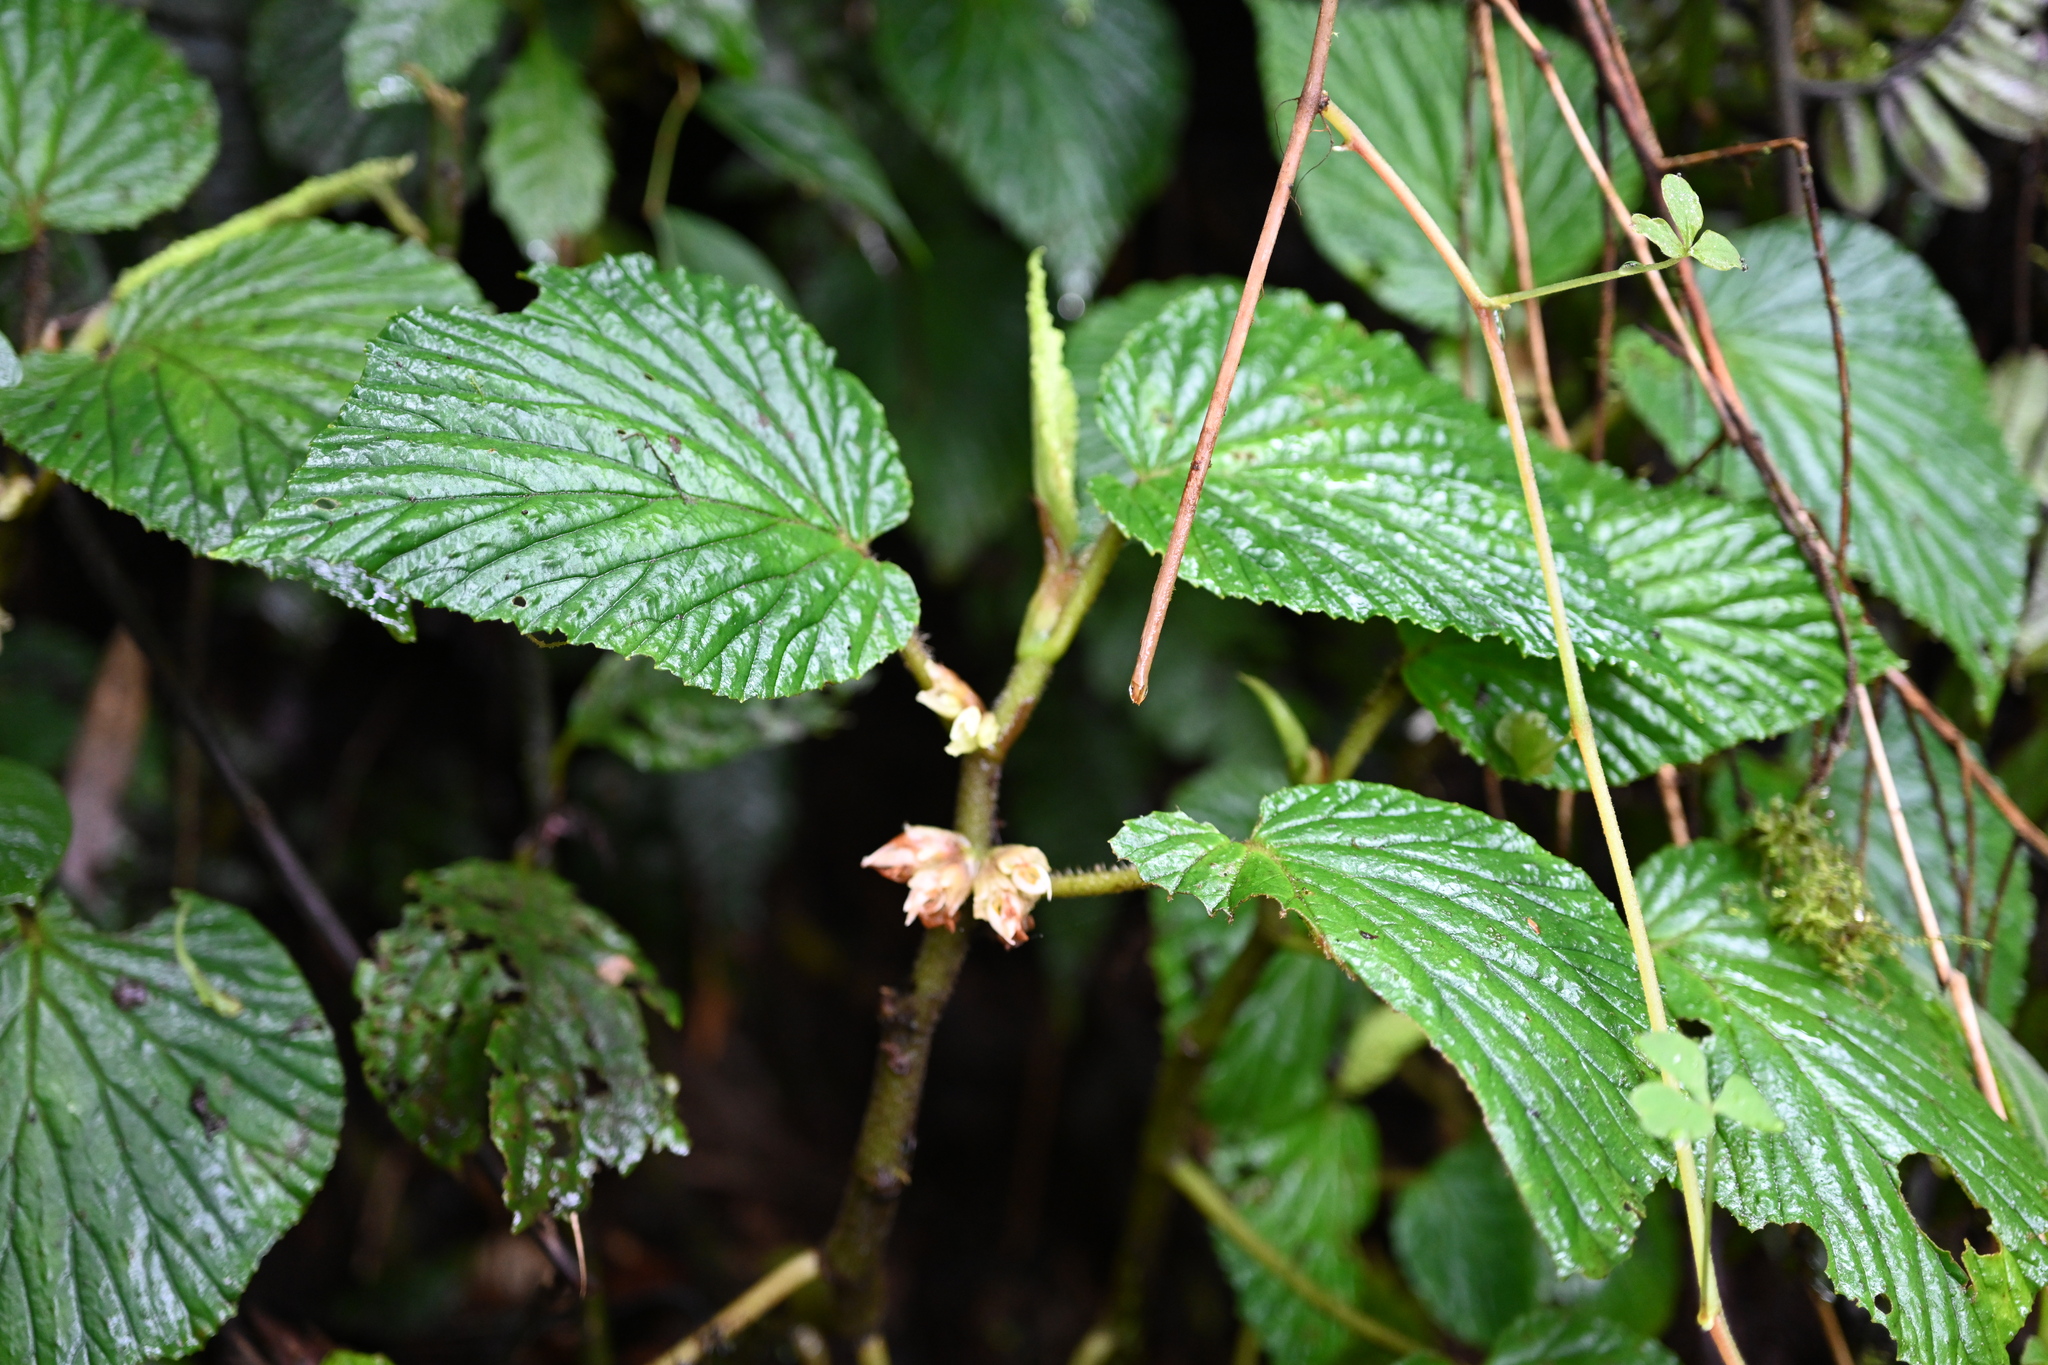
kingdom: Plantae
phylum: Tracheophyta
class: Magnoliopsida
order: Cucurbitales
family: Begoniaceae
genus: Begonia
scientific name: Begonia tiliifolia
